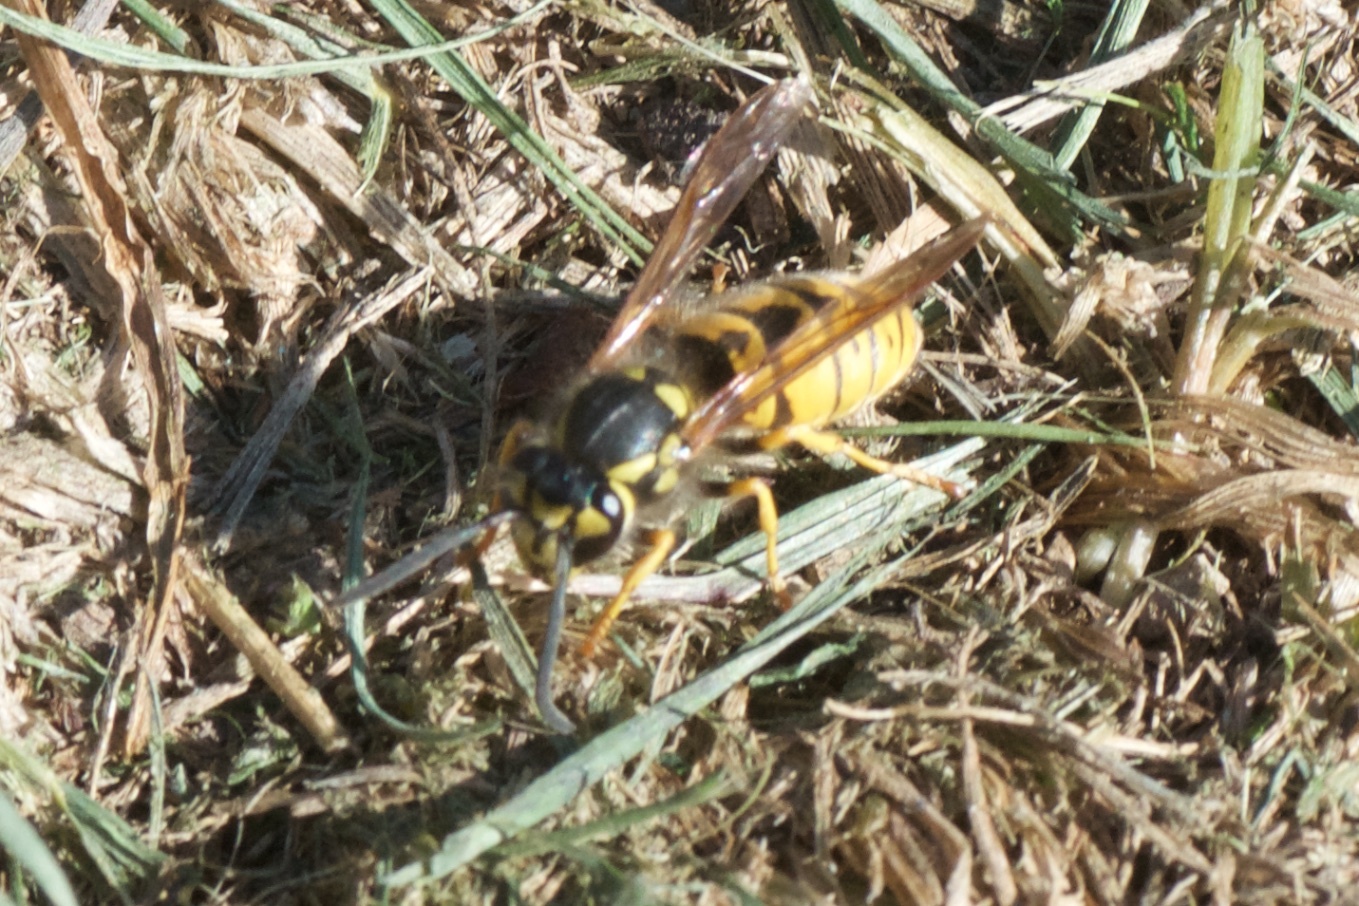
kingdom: Animalia
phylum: Arthropoda
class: Insecta
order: Hymenoptera
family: Vespidae
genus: Vespula
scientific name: Vespula germanica
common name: German wasp
